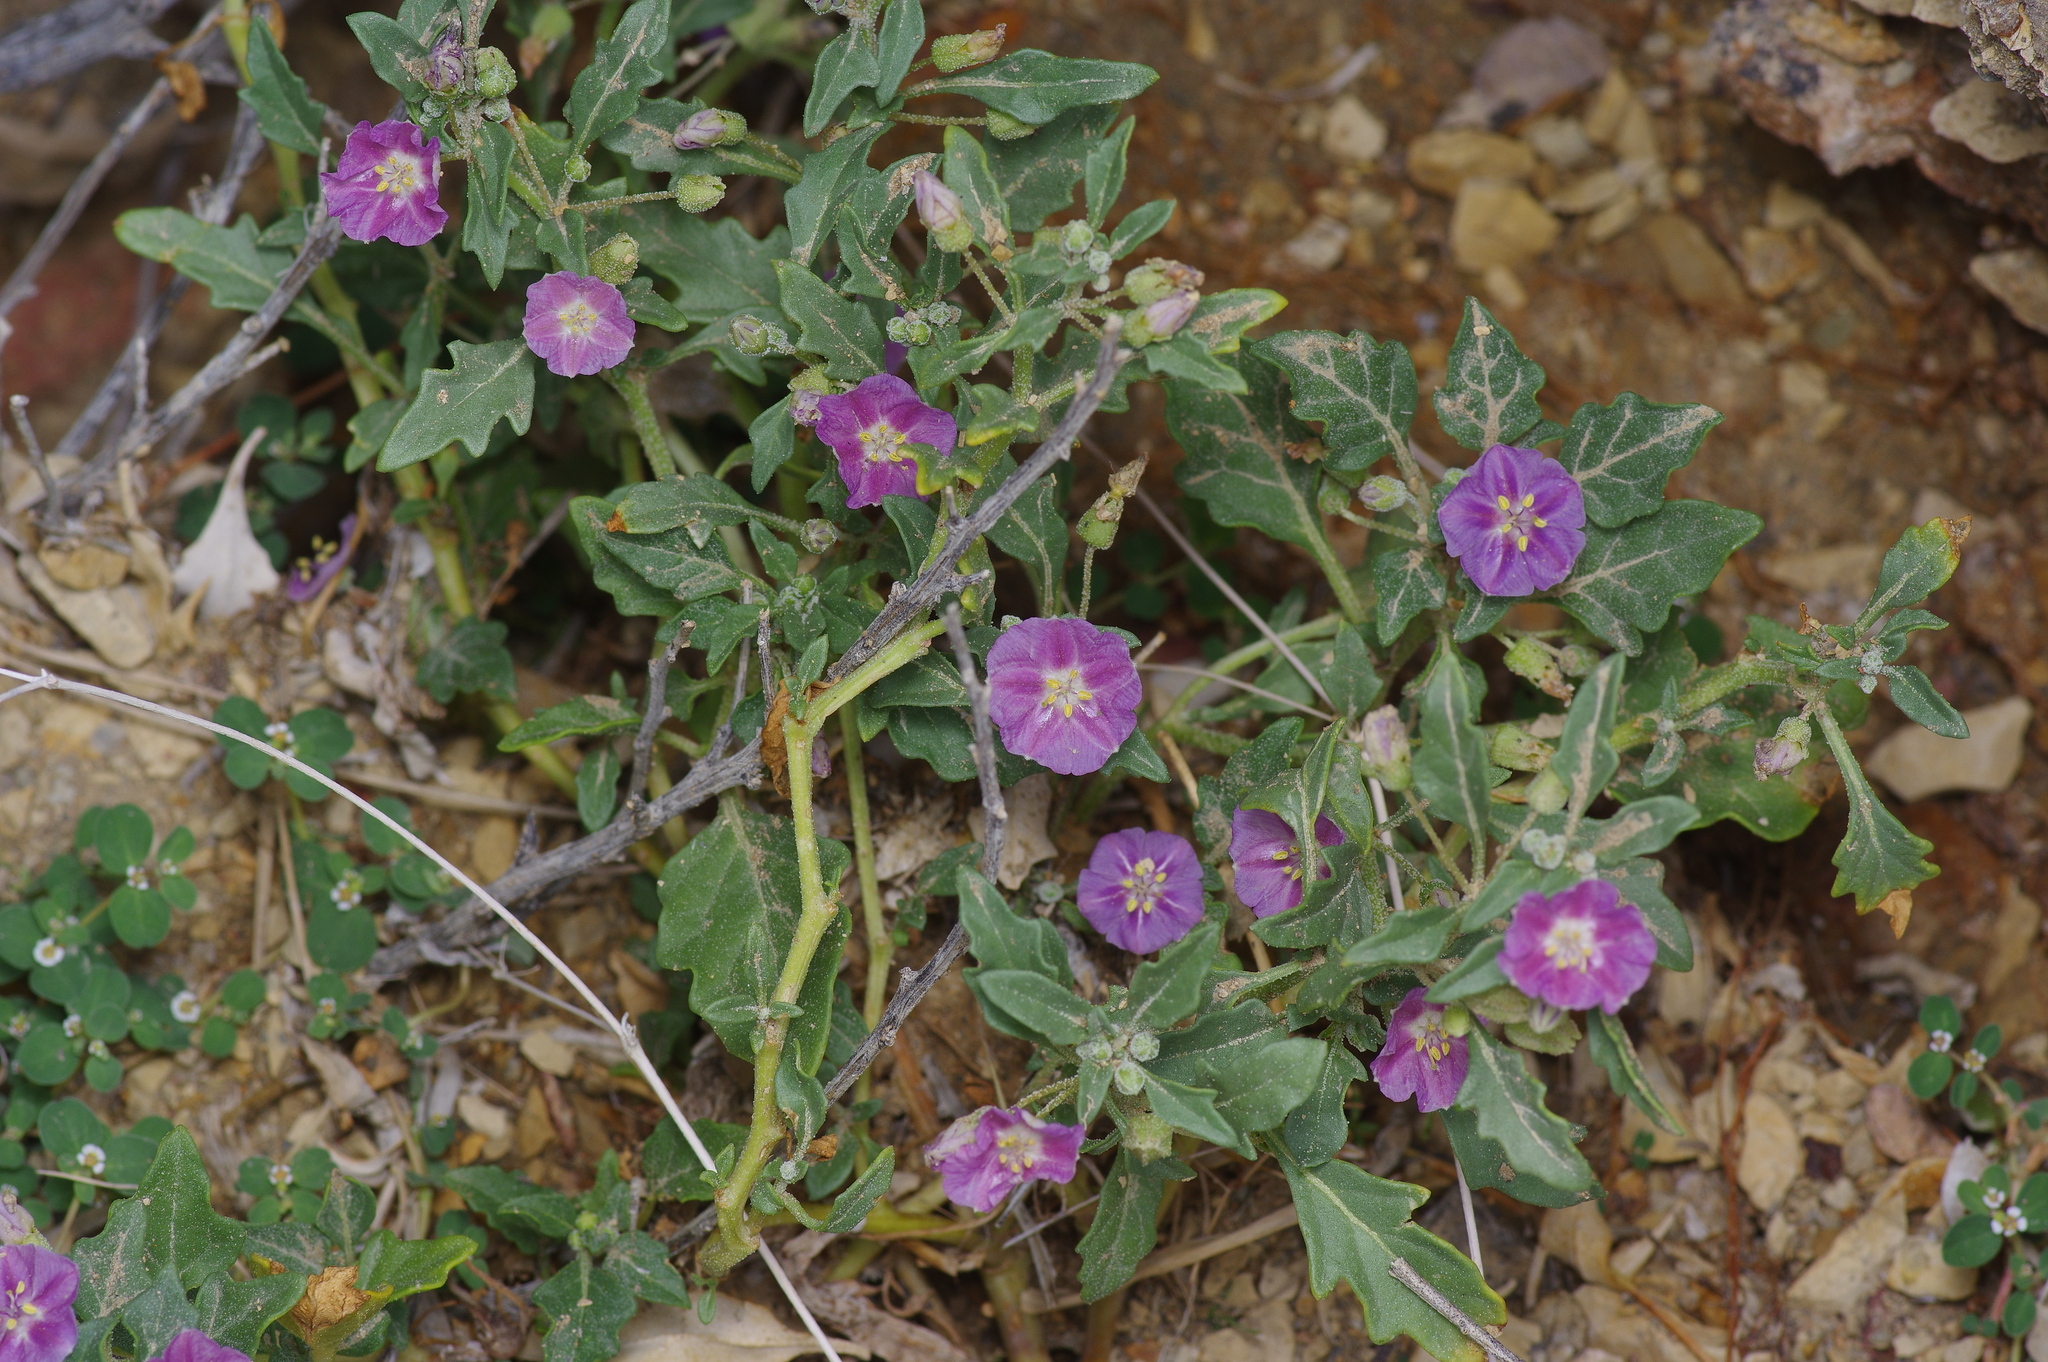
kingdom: Plantae
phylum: Tracheophyta
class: Magnoliopsida
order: Solanales
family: Solanaceae
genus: Quincula
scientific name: Quincula lobata
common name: Purple-ground-cherry
